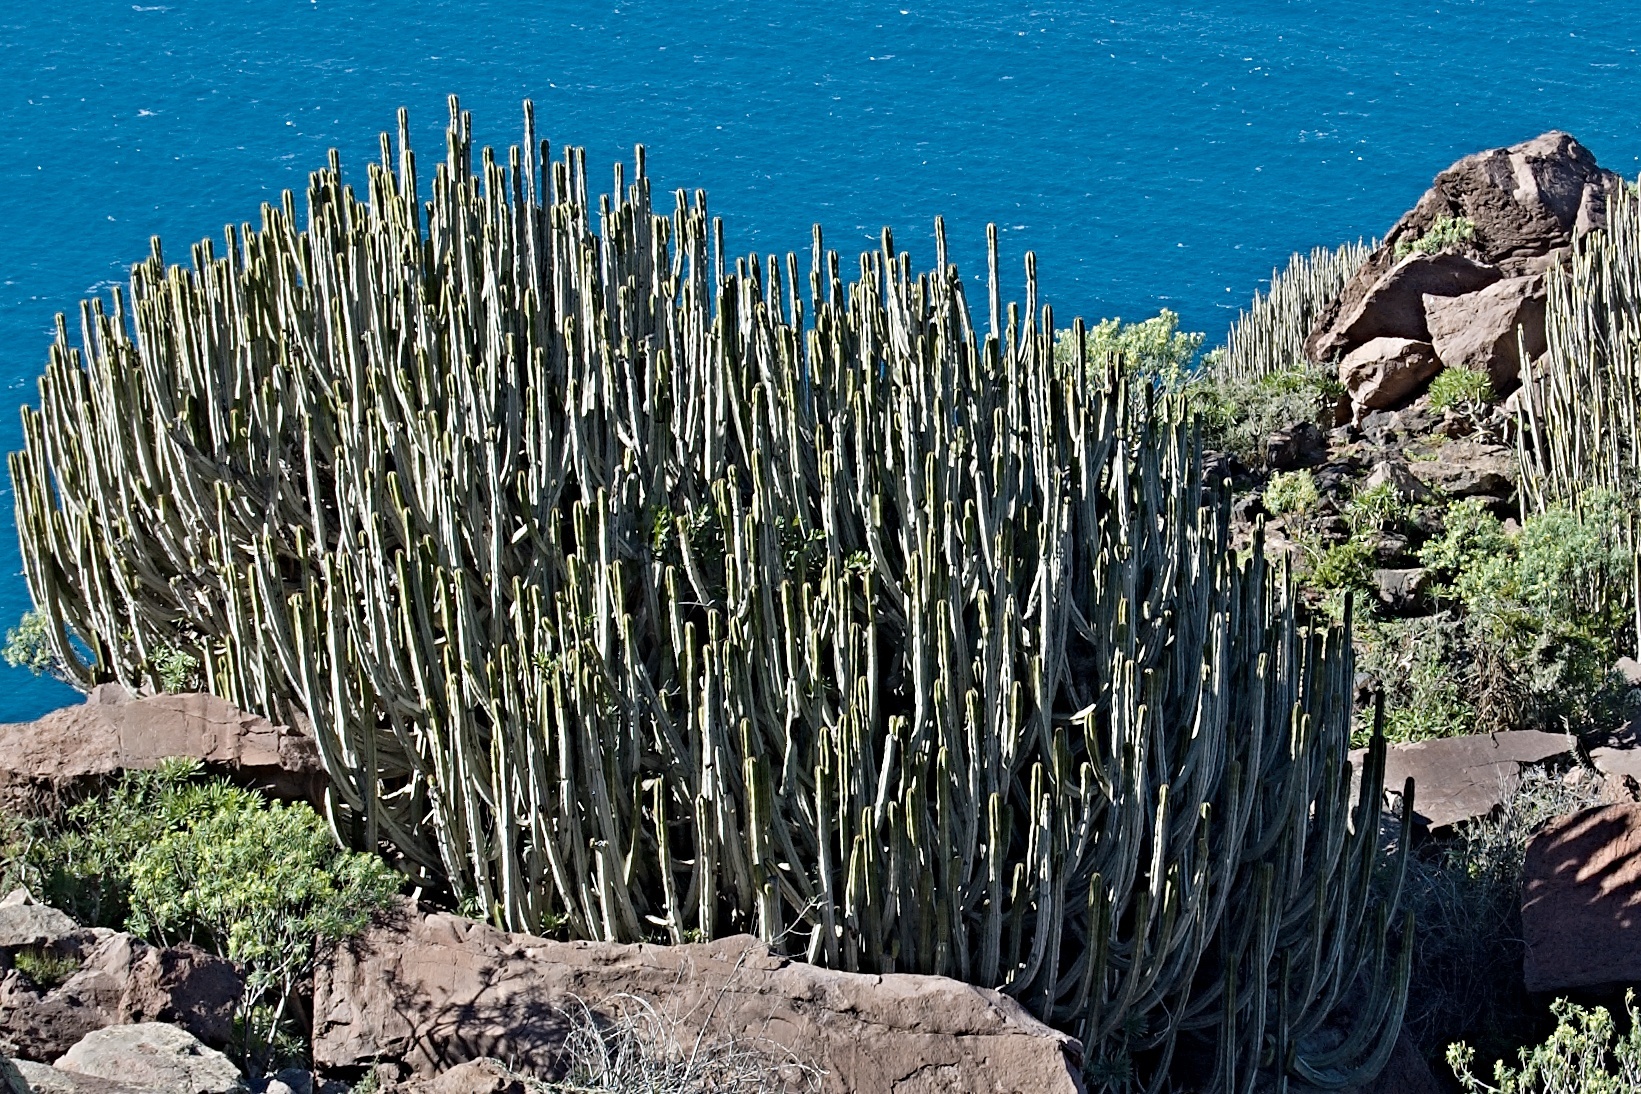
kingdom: Plantae
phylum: Tracheophyta
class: Magnoliopsida
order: Malpighiales
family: Euphorbiaceae
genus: Euphorbia
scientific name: Euphorbia canariensis
